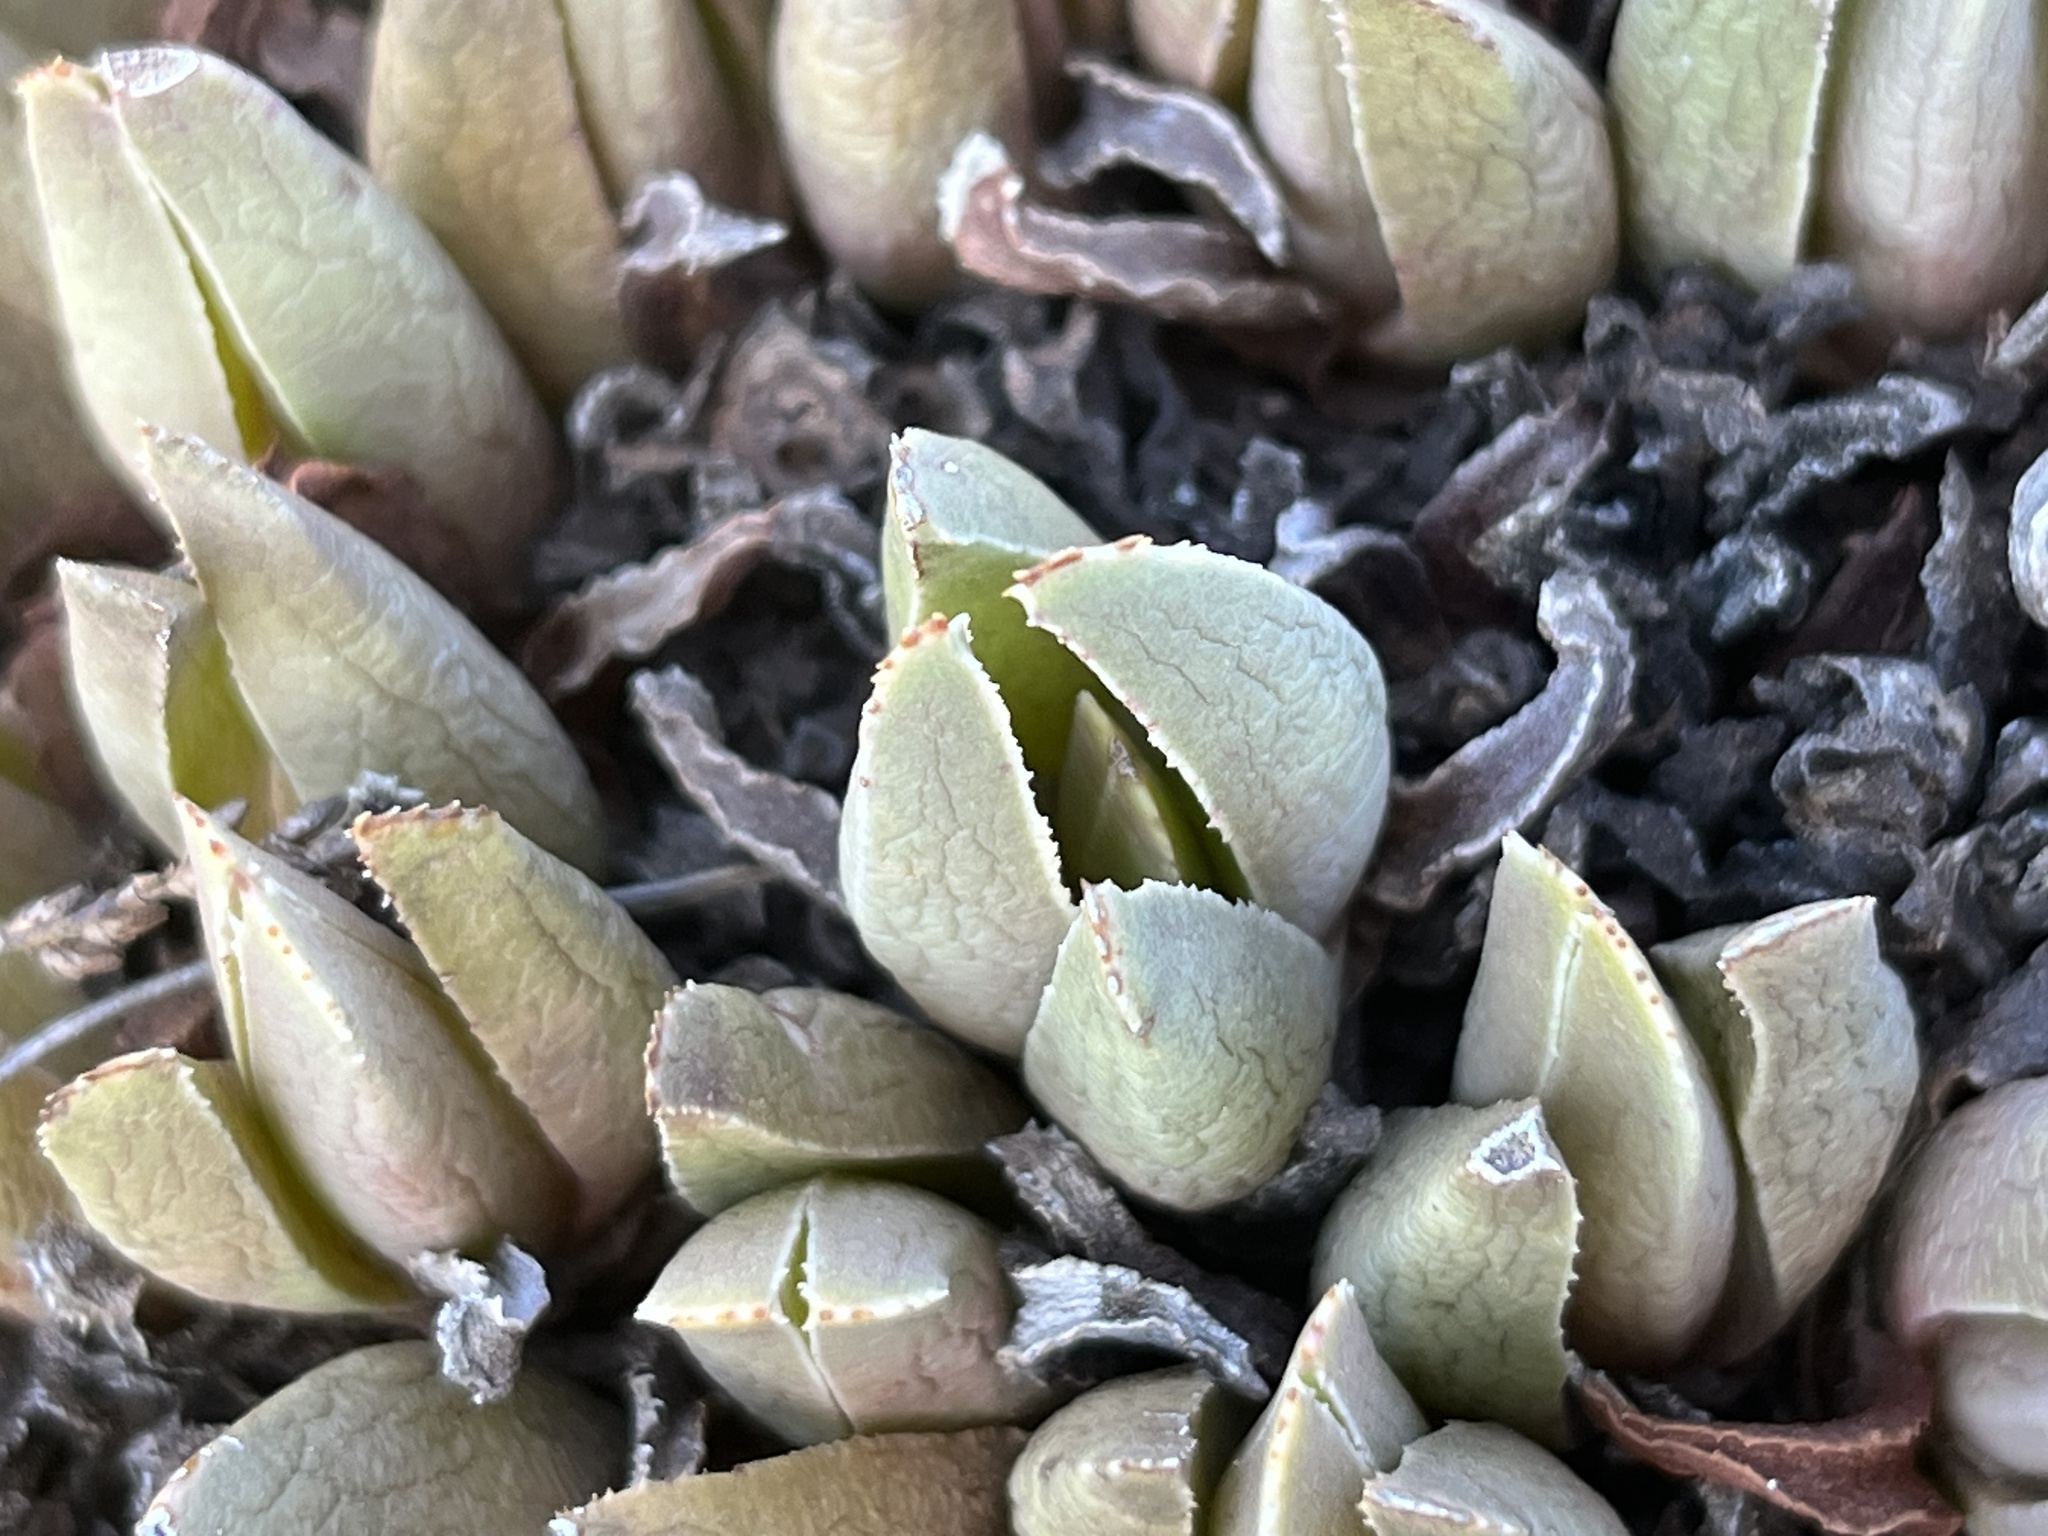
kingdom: Plantae
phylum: Tracheophyta
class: Magnoliopsida
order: Caryophyllales
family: Aizoaceae
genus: Acrodon
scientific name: Acrodon bellidiflorus
